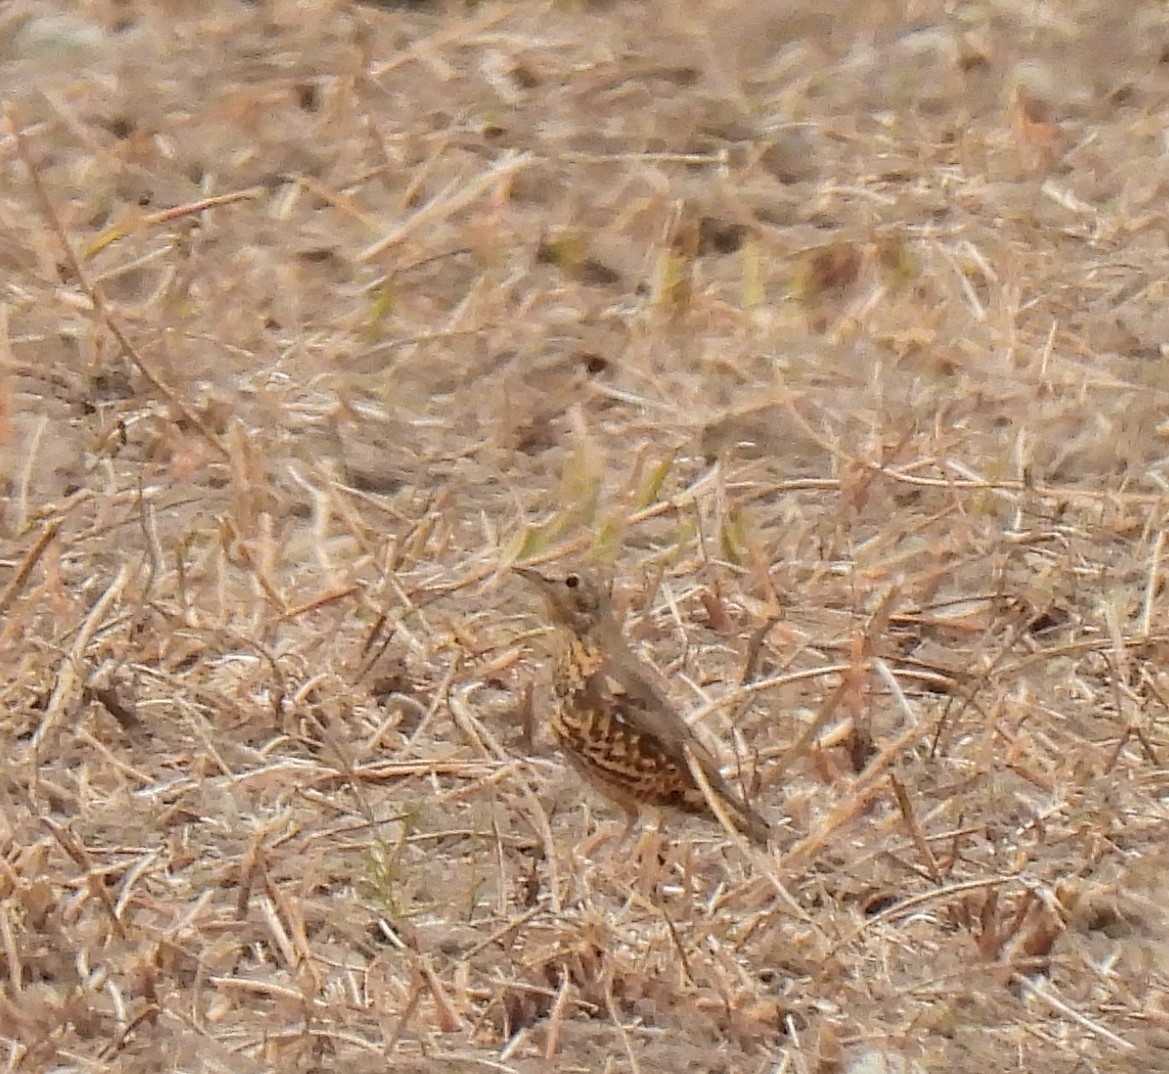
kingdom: Animalia
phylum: Chordata
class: Aves
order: Passeriformes
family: Turdidae
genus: Turdus
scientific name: Turdus viscivorus
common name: Mistle thrush
